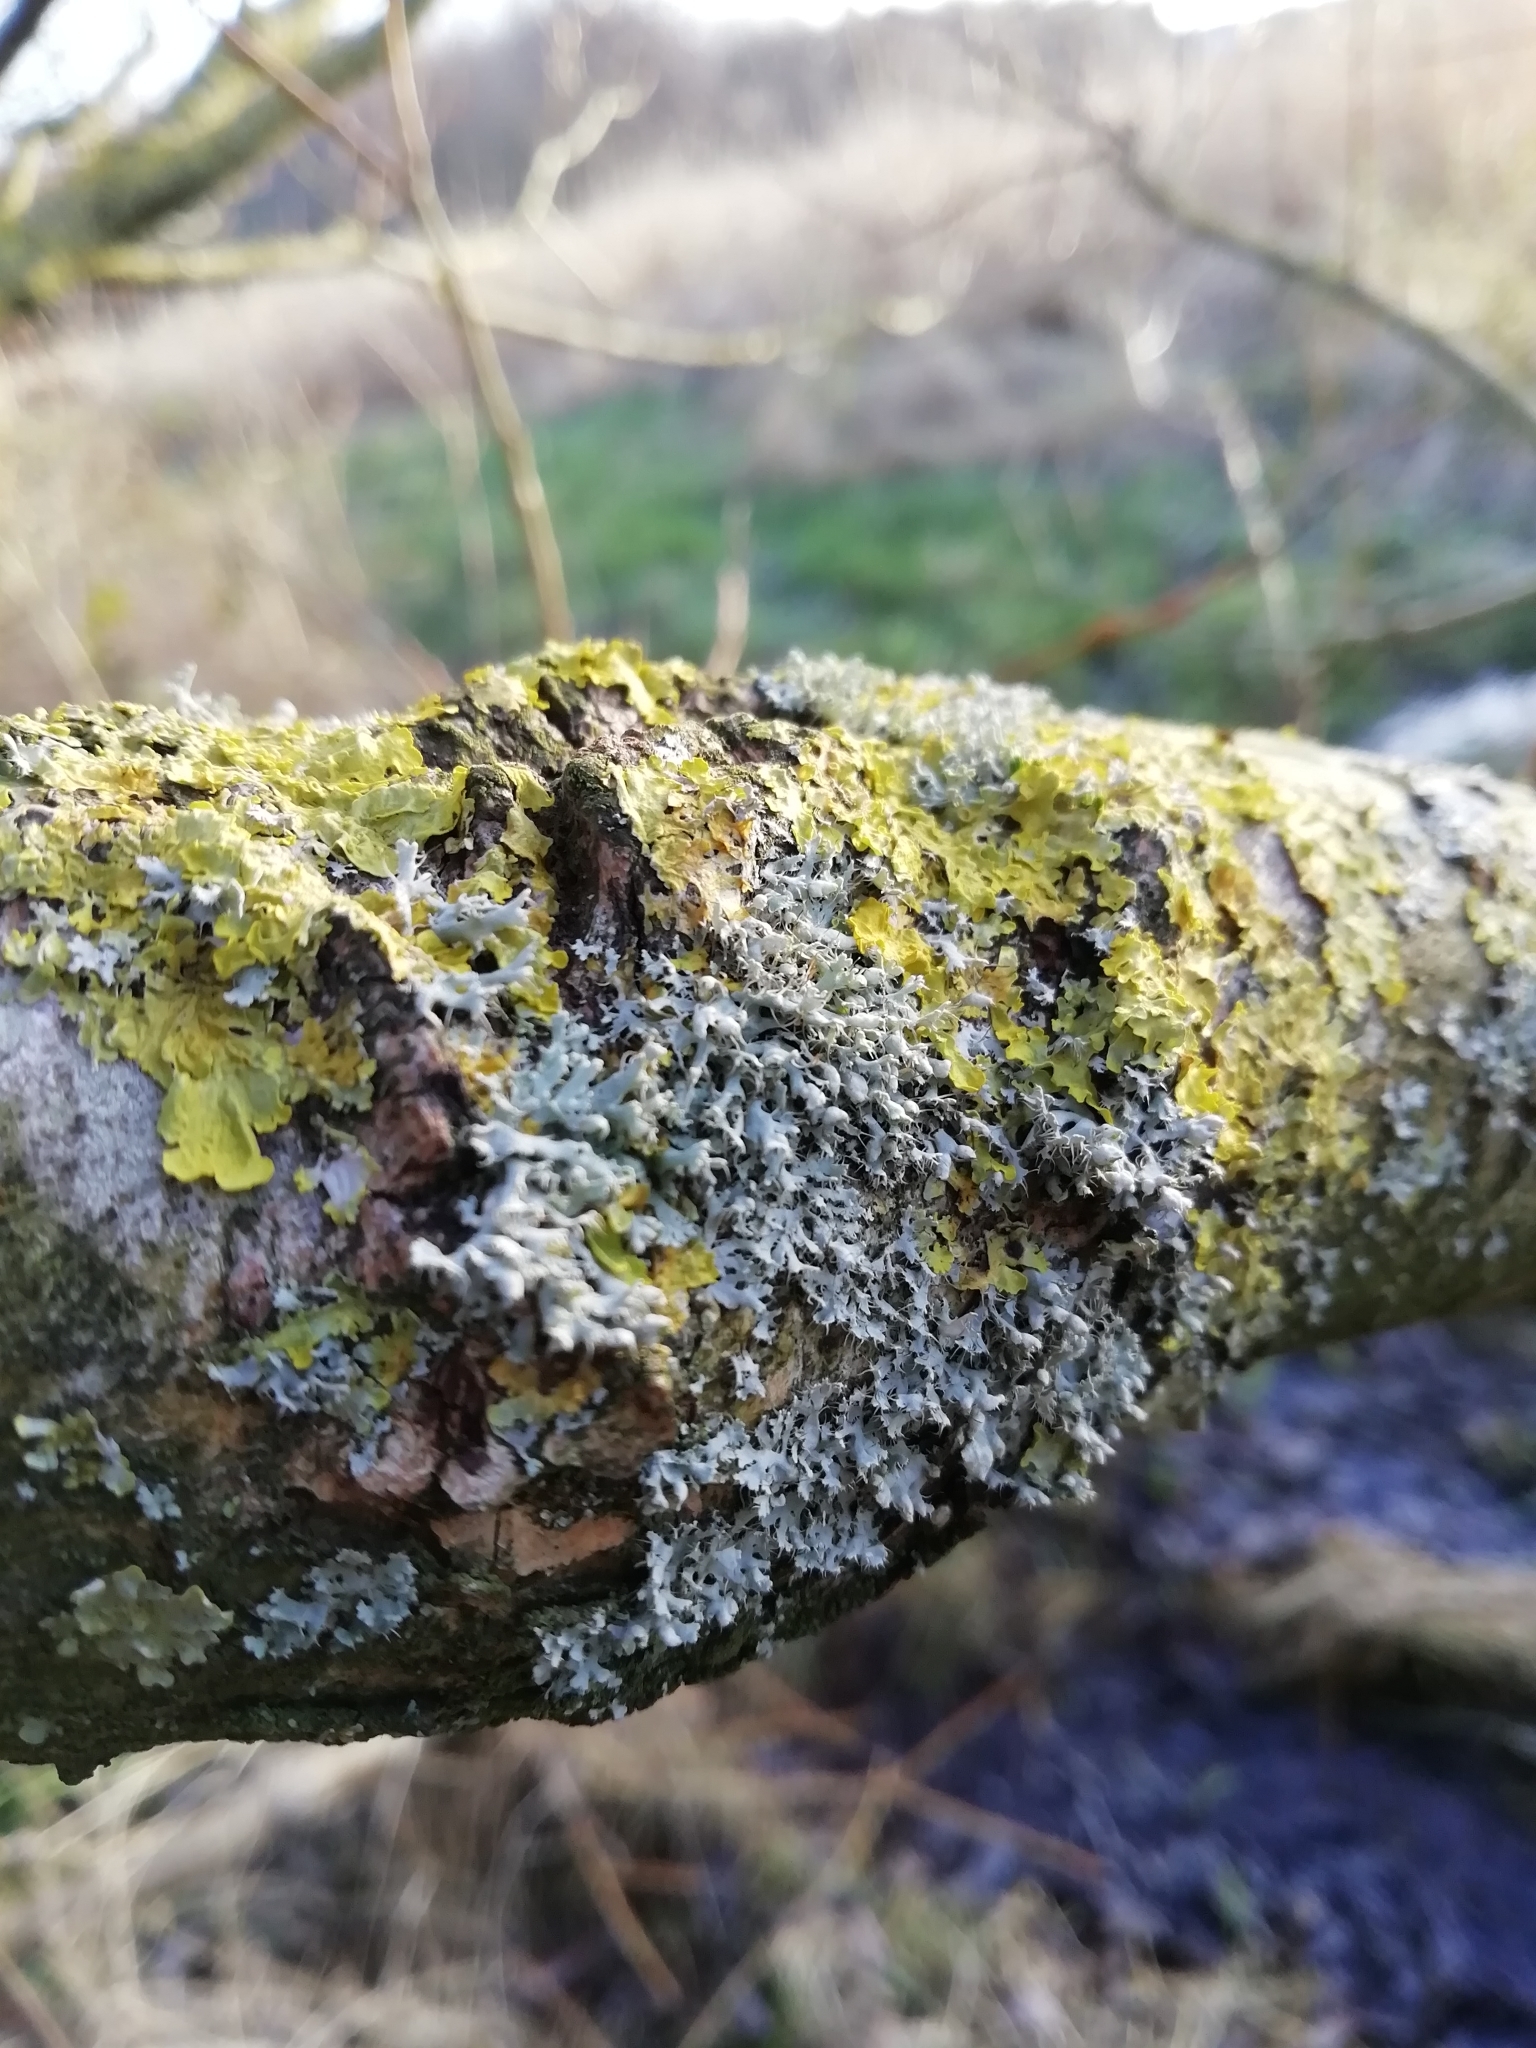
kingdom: Fungi
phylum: Ascomycota
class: Lecanoromycetes
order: Caliciales
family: Physciaceae
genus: Physcia
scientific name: Physcia adscendens
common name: Hooded rosette lichen
